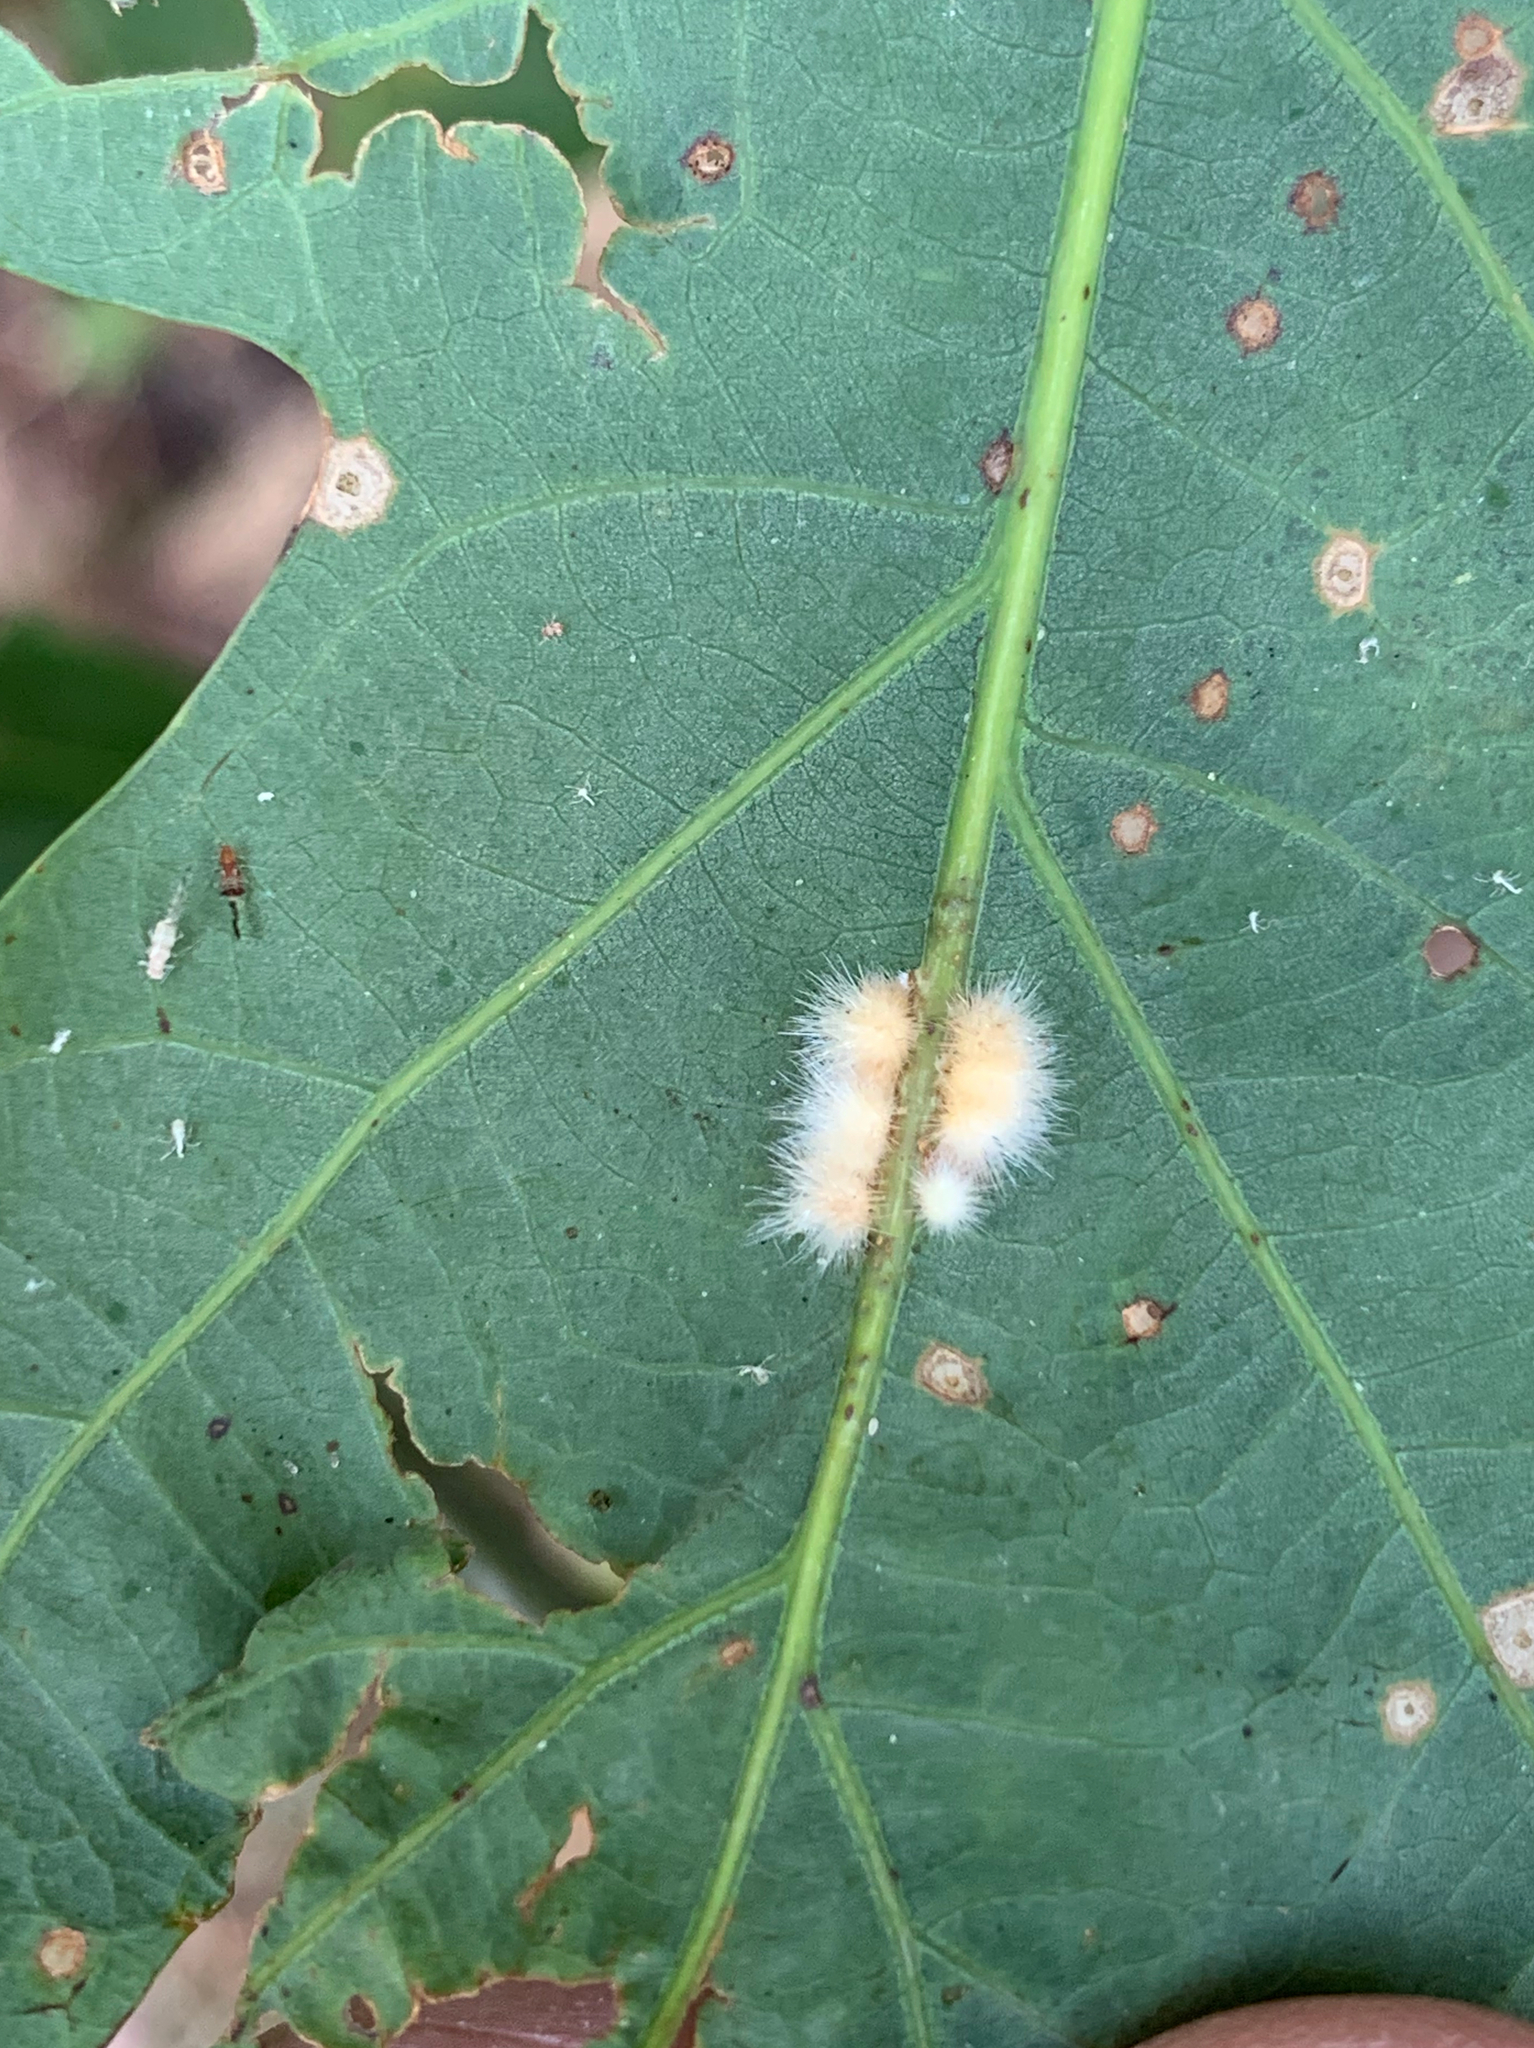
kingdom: Animalia
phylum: Arthropoda
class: Insecta
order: Hymenoptera
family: Cynipidae
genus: Andricus
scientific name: Andricus
